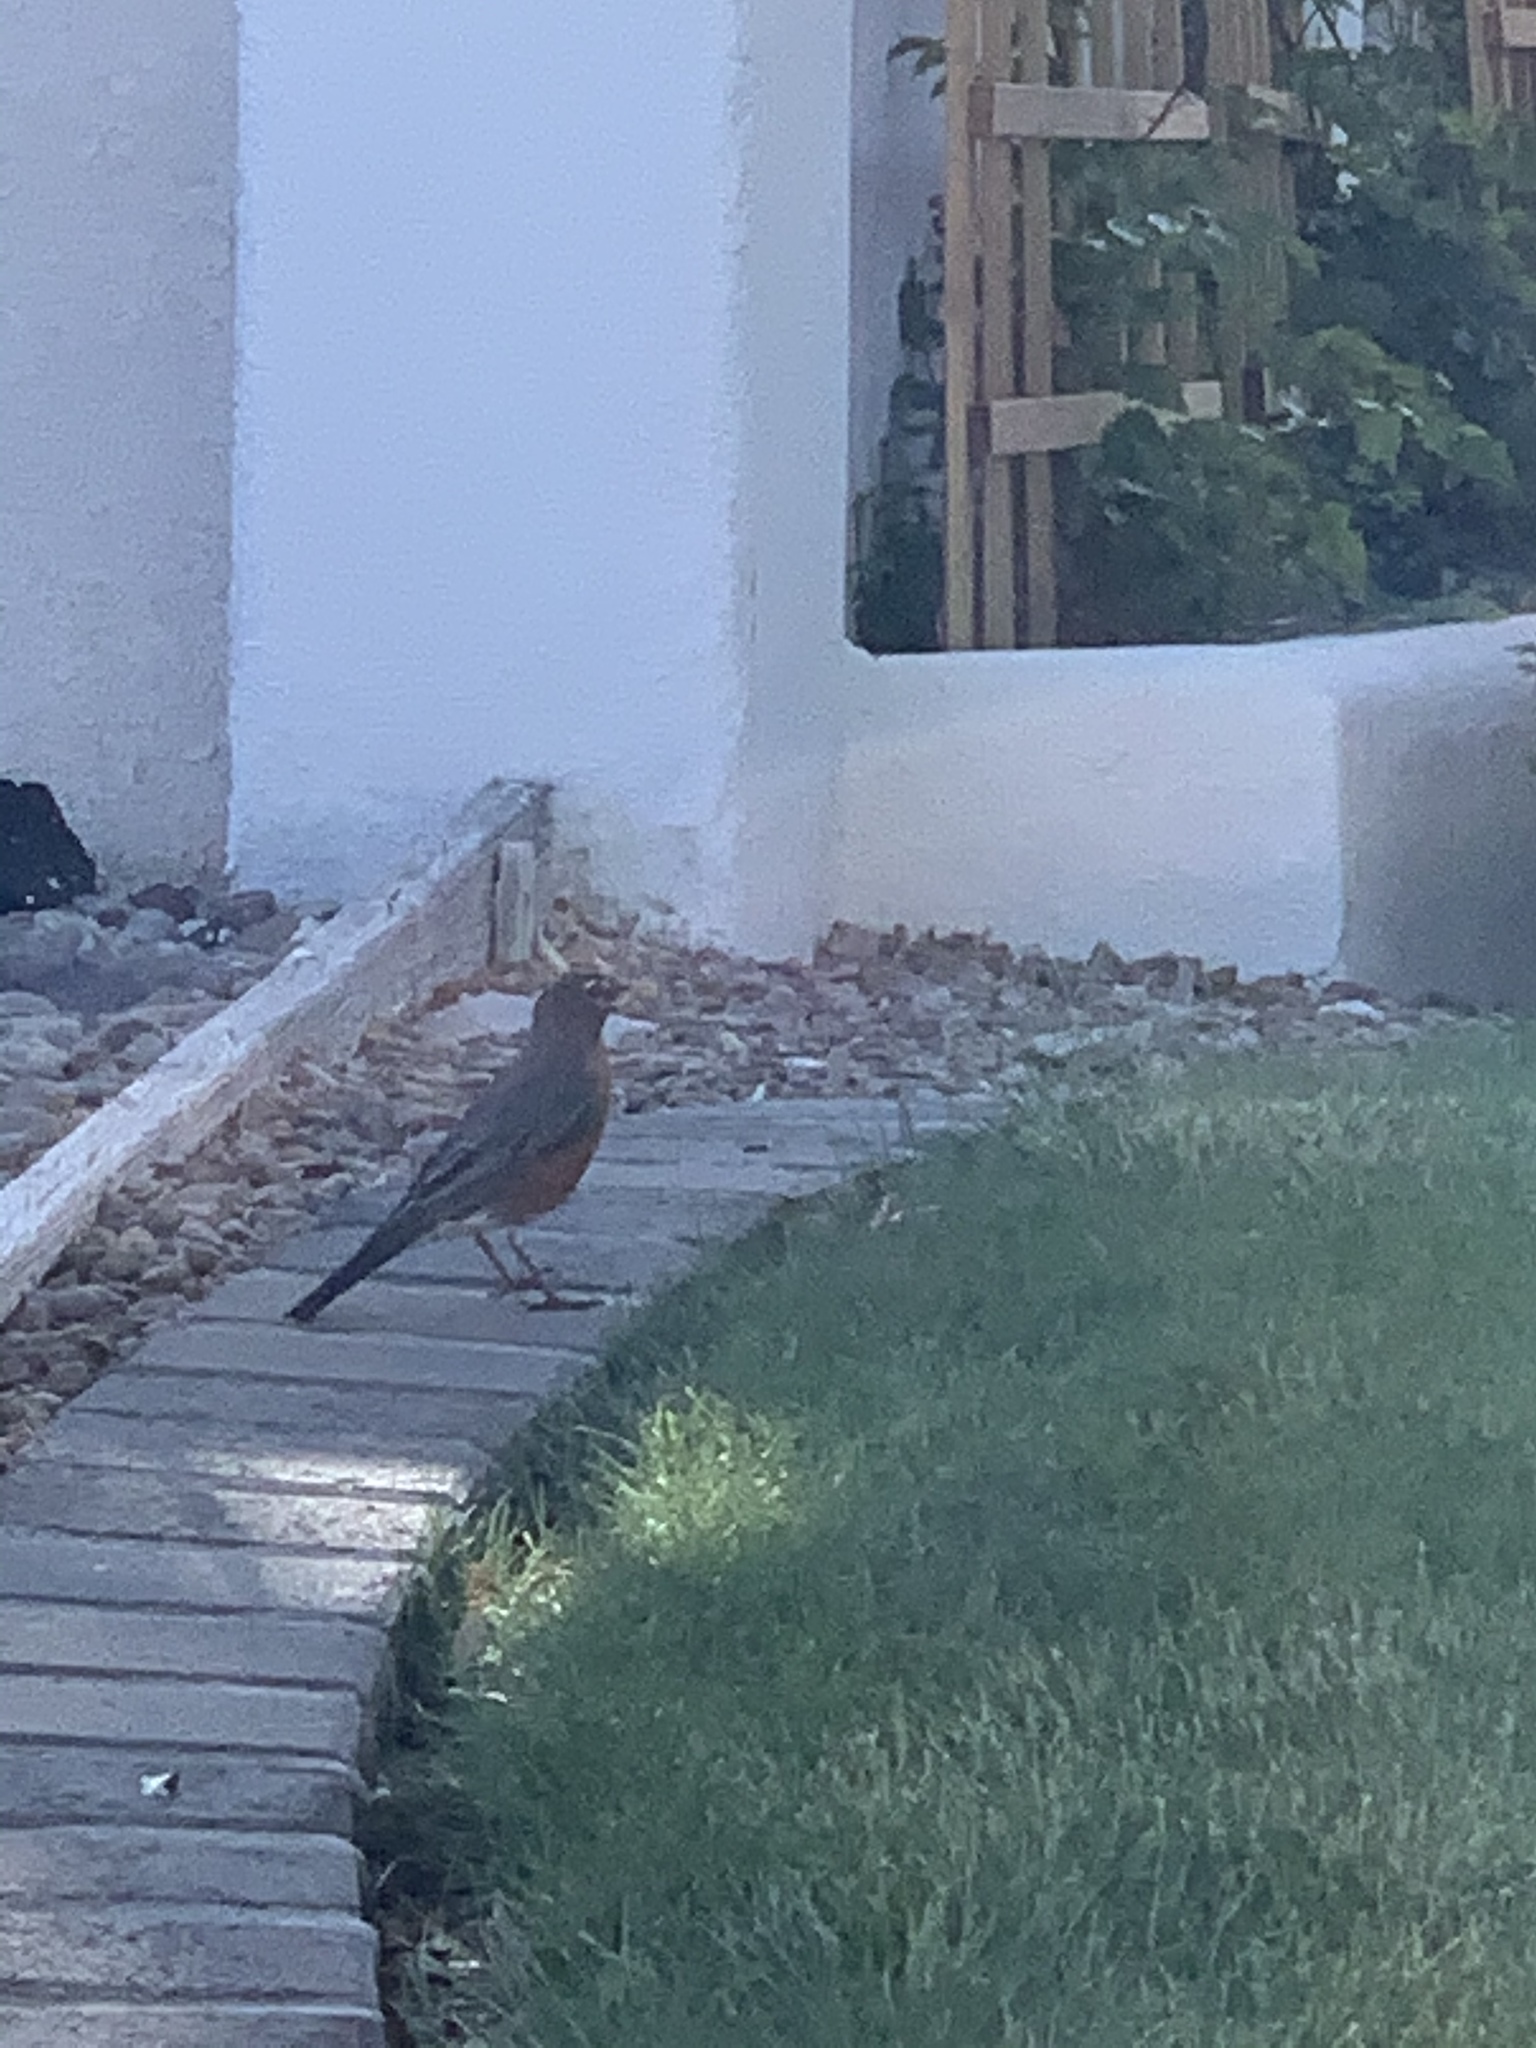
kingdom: Animalia
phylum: Chordata
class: Aves
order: Passeriformes
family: Turdidae
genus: Turdus
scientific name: Turdus migratorius
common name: American robin
